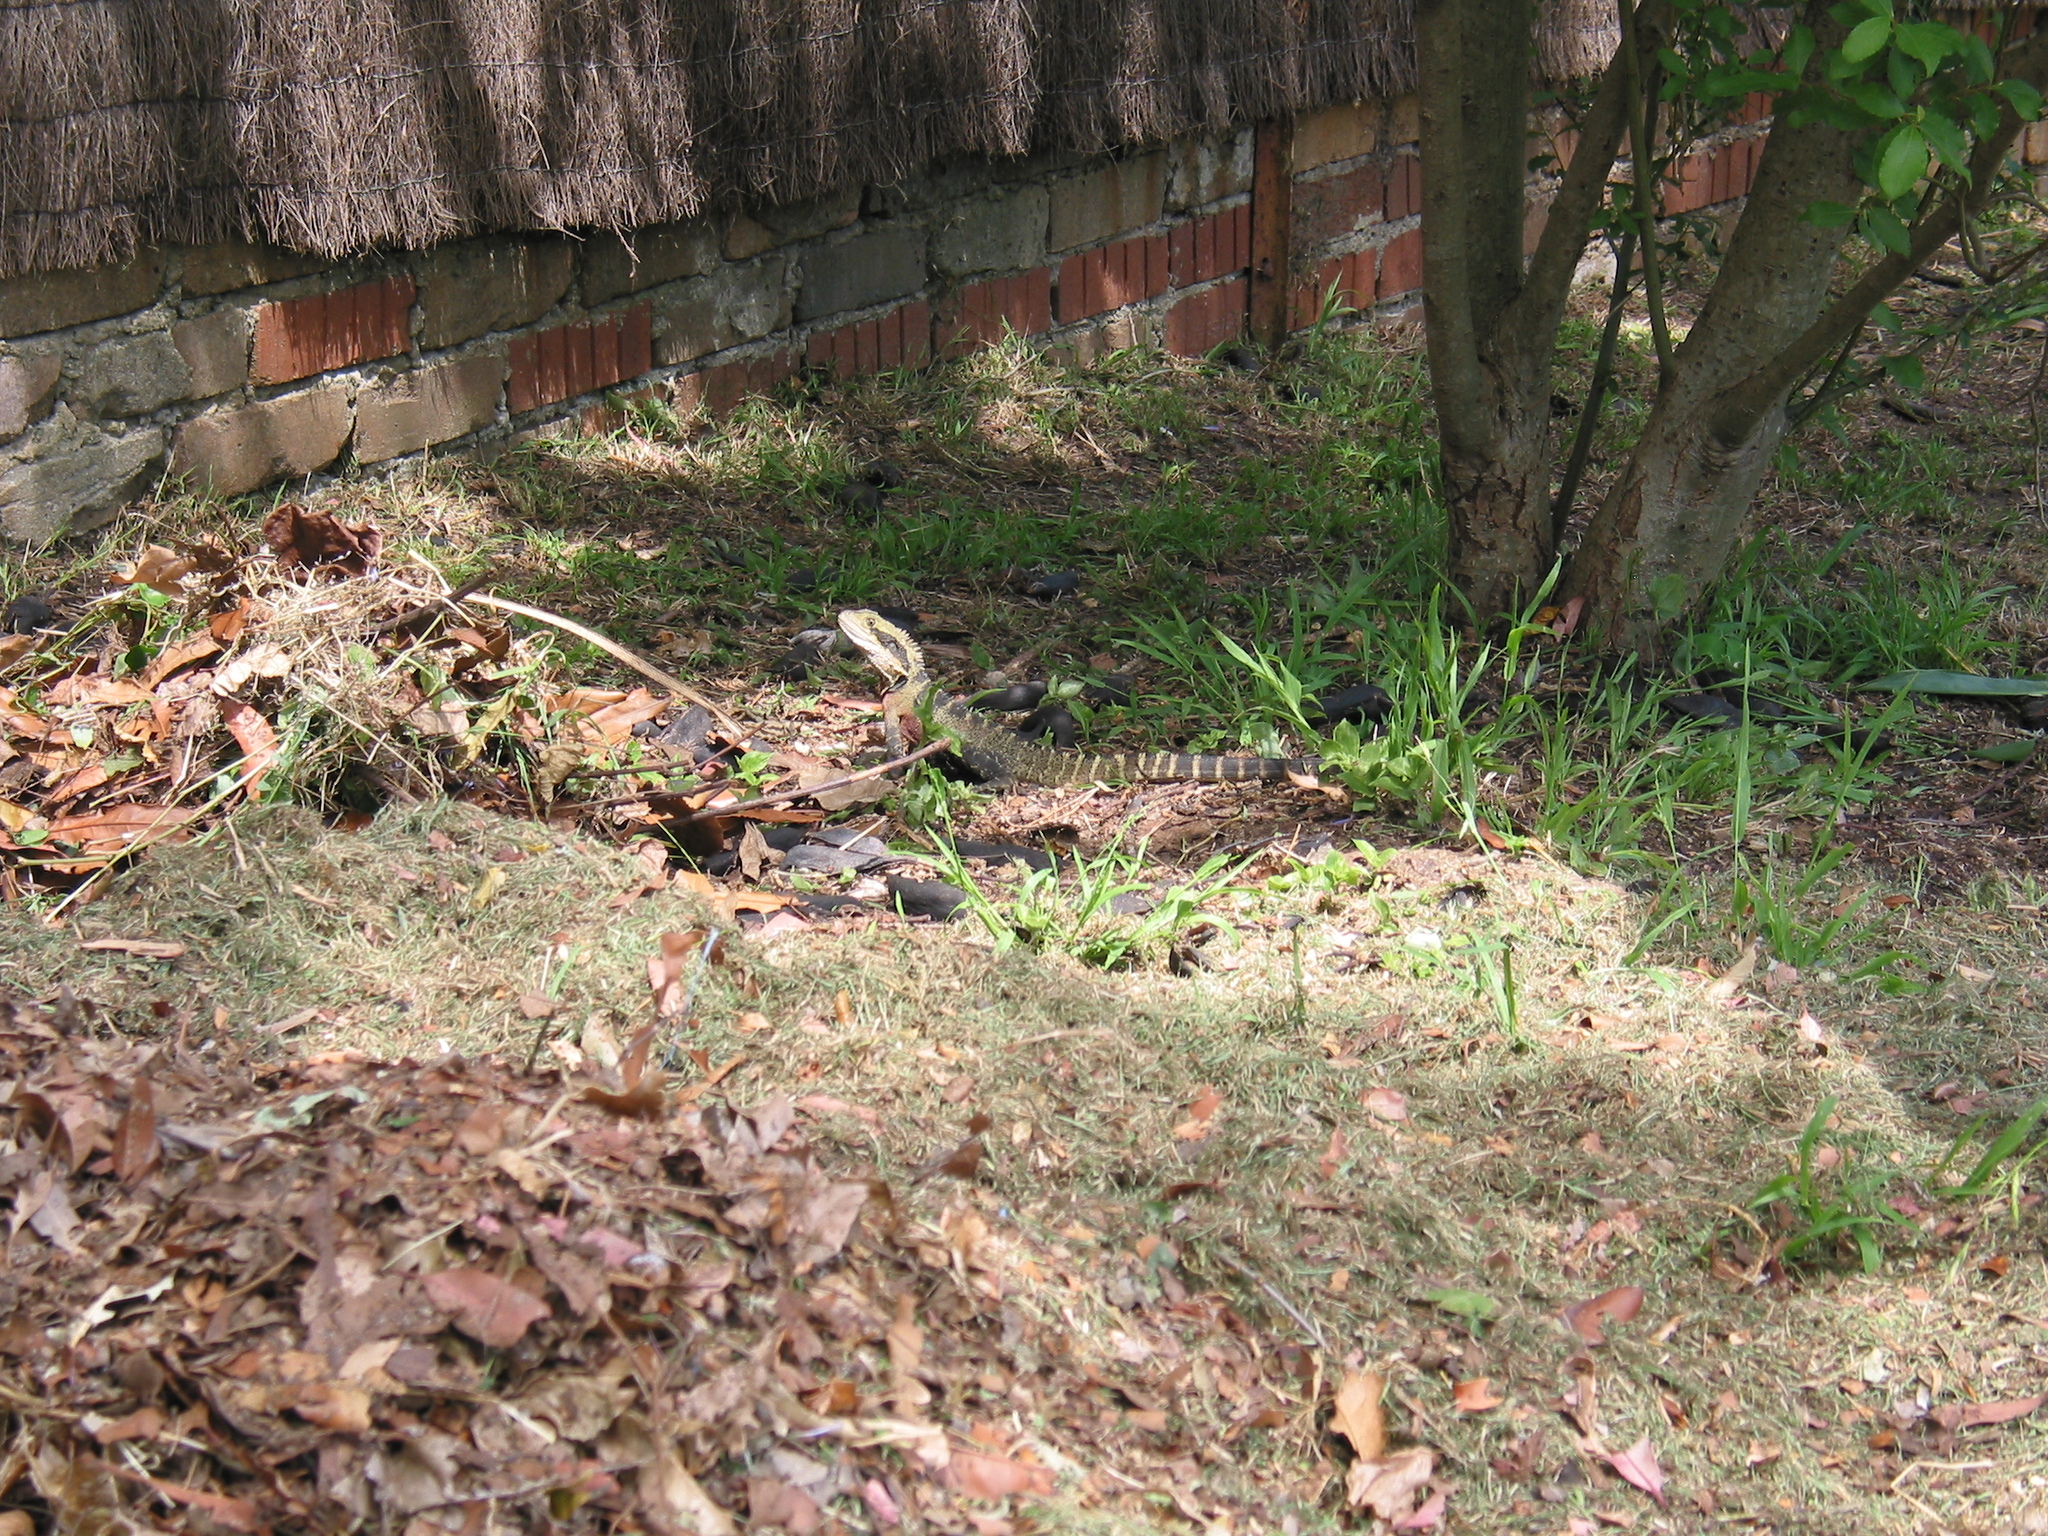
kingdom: Animalia
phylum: Chordata
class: Squamata
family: Agamidae
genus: Intellagama
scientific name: Intellagama lesueurii
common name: Eastern water dragon
